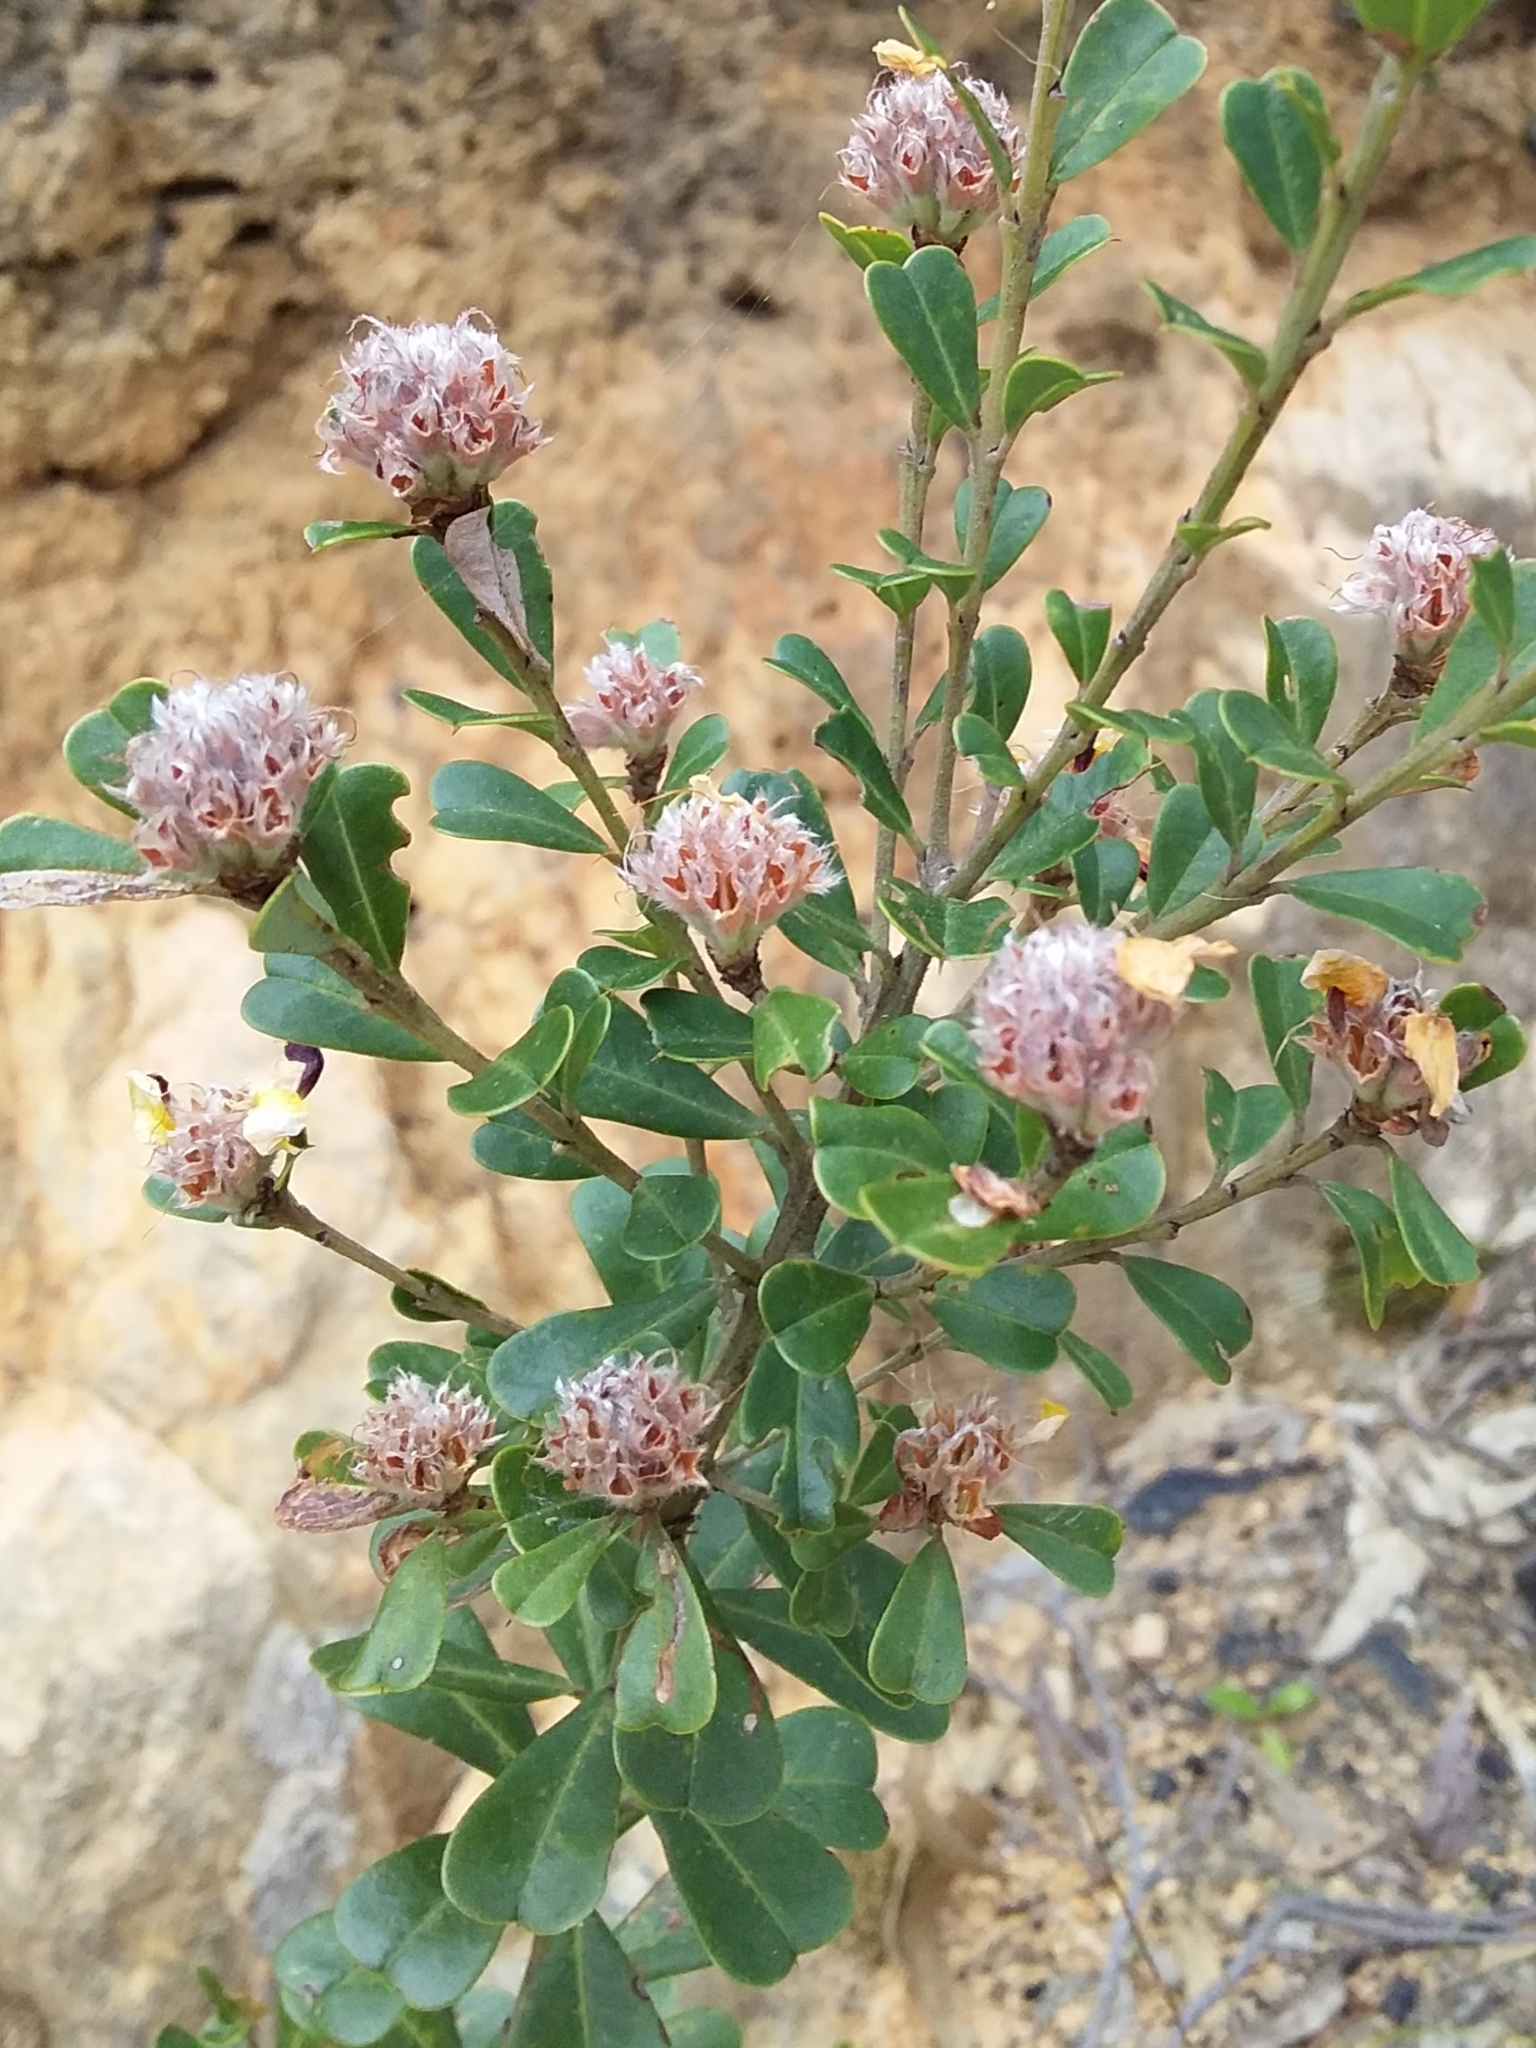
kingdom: Plantae
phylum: Tracheophyta
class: Magnoliopsida
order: Fabales
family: Fabaceae
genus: Pultenaea
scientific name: Pultenaea daphnoides
